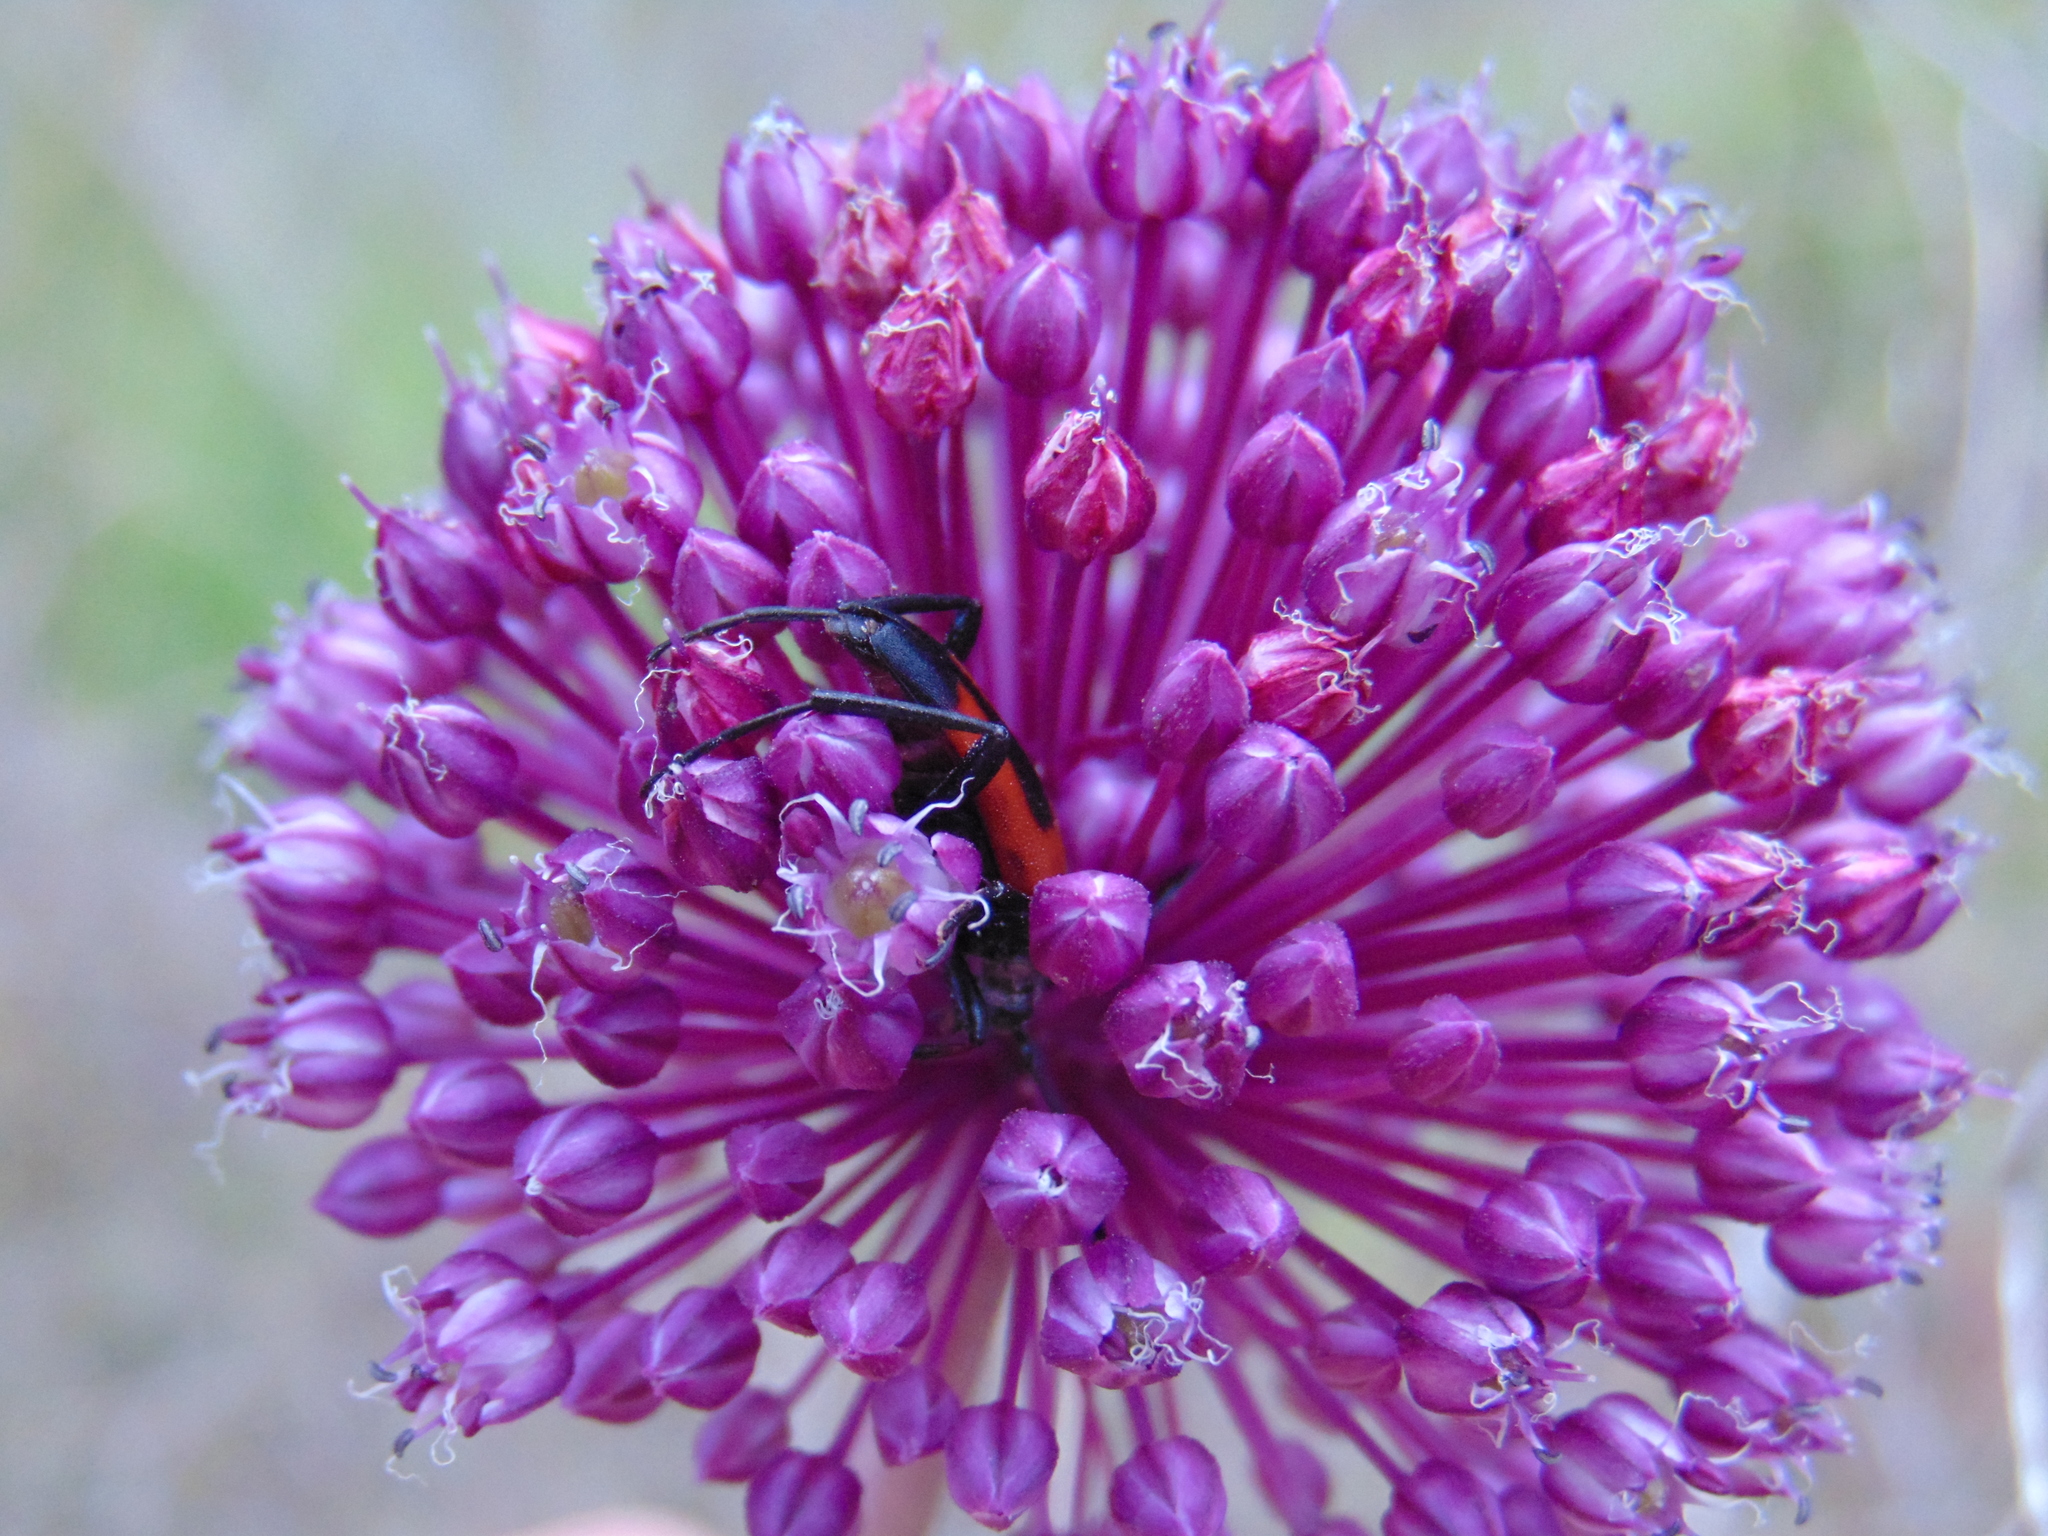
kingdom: Animalia
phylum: Arthropoda
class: Insecta
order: Coleoptera
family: Cerambycidae
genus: Stictoleptura
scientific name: Stictoleptura cordigera
